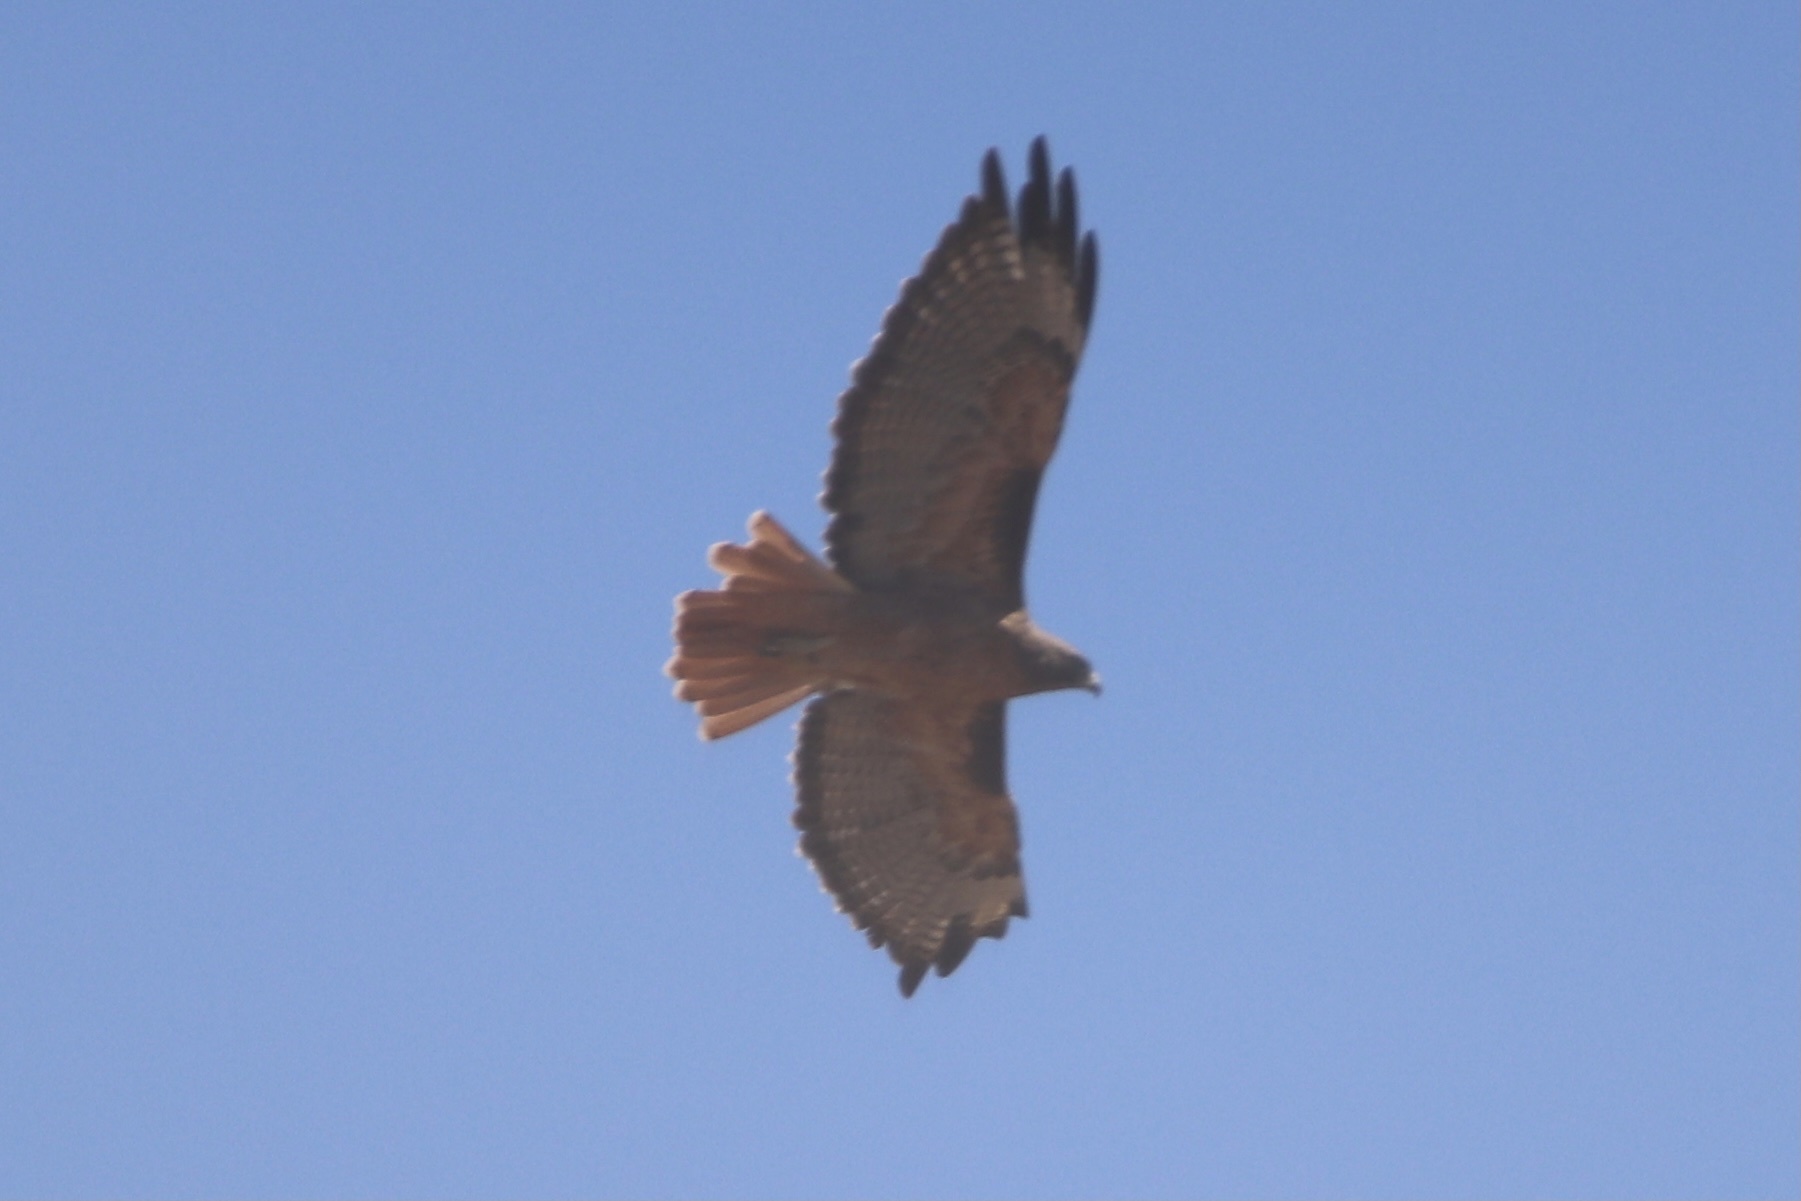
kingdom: Animalia
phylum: Chordata
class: Aves
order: Accipitriformes
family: Accipitridae
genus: Buteo
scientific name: Buteo jamaicensis
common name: Red-tailed hawk
